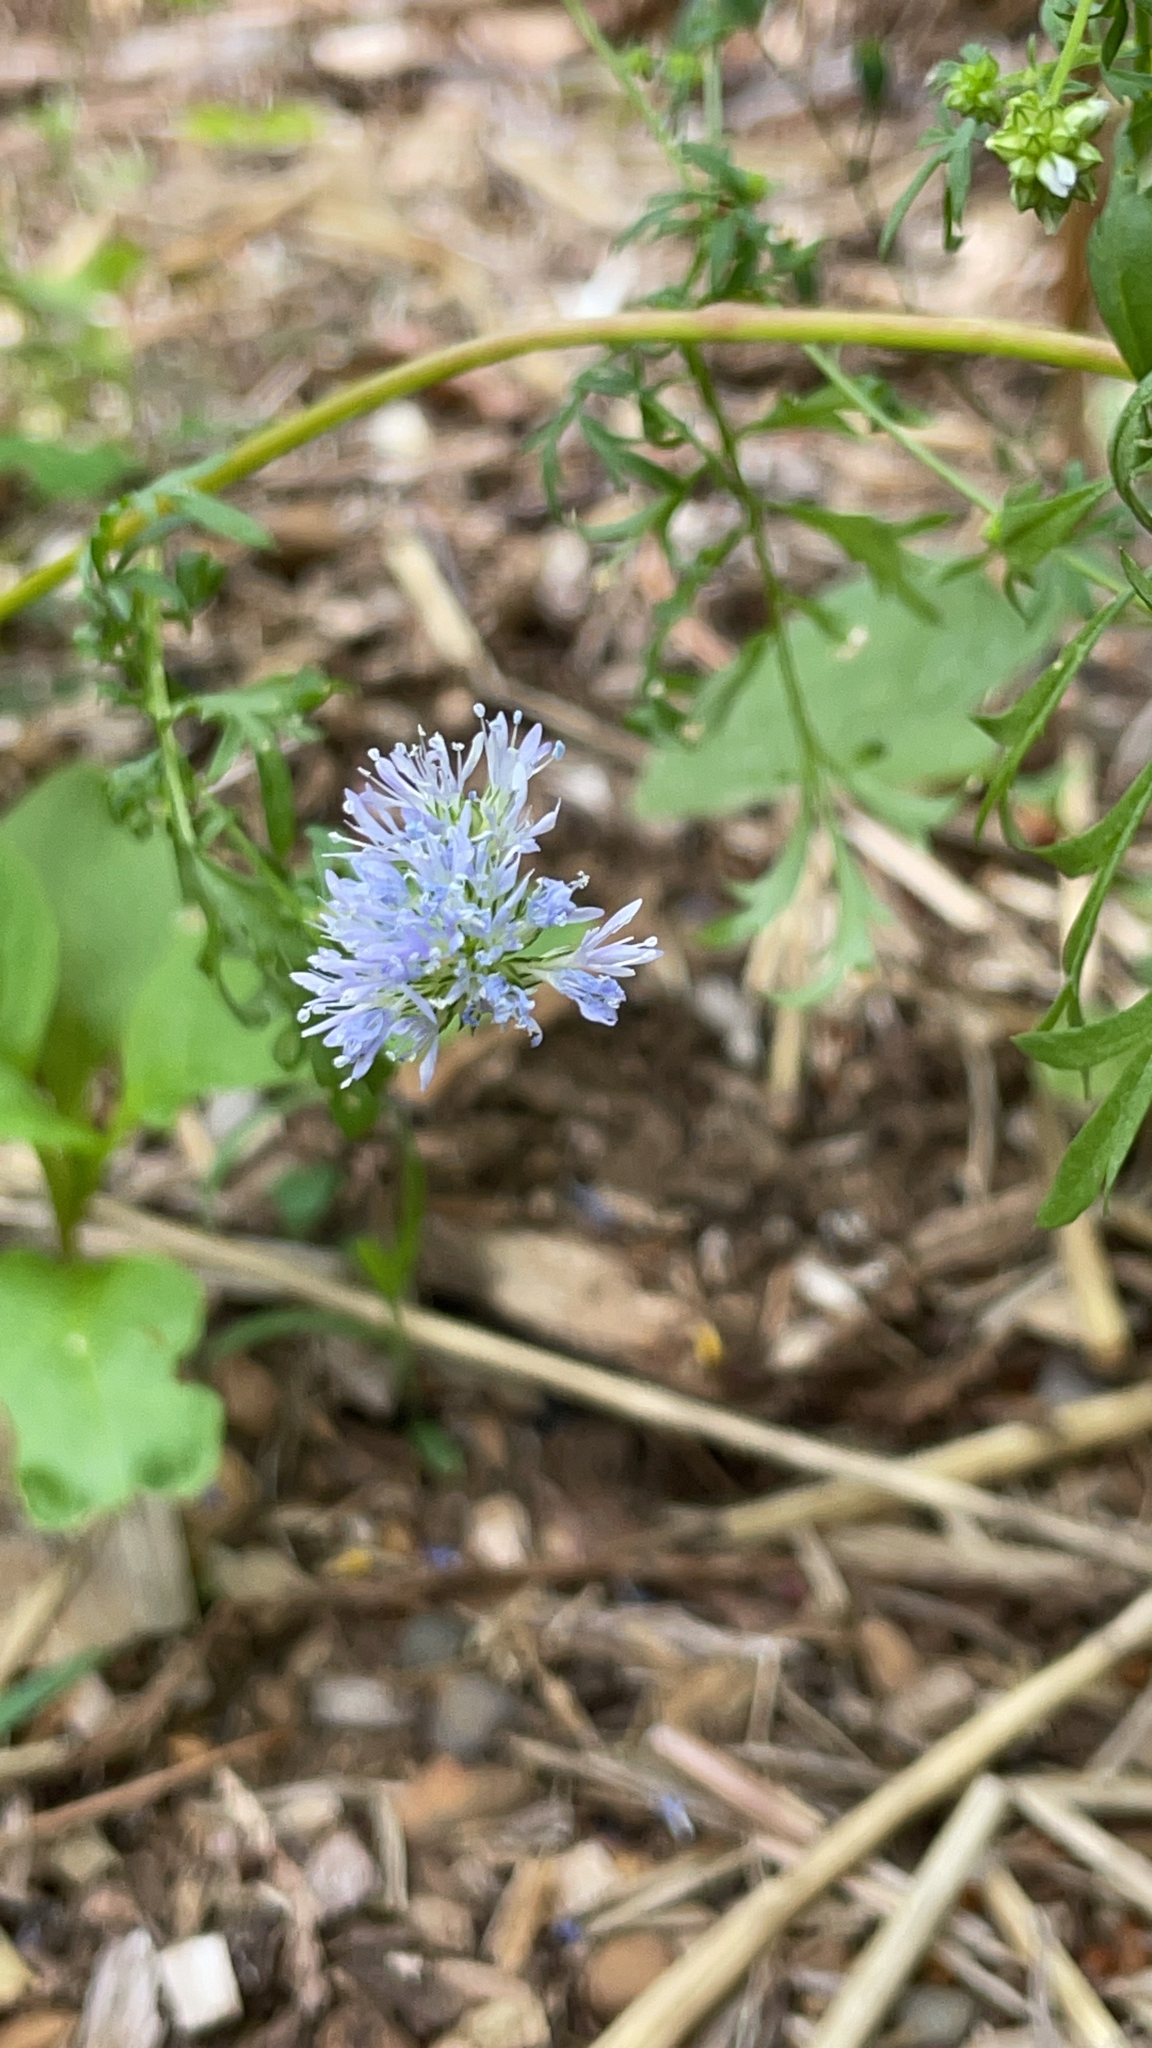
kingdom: Plantae
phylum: Tracheophyta
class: Magnoliopsida
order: Ericales
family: Polemoniaceae
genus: Gilia
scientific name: Gilia capitata
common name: Bluehead gilia
